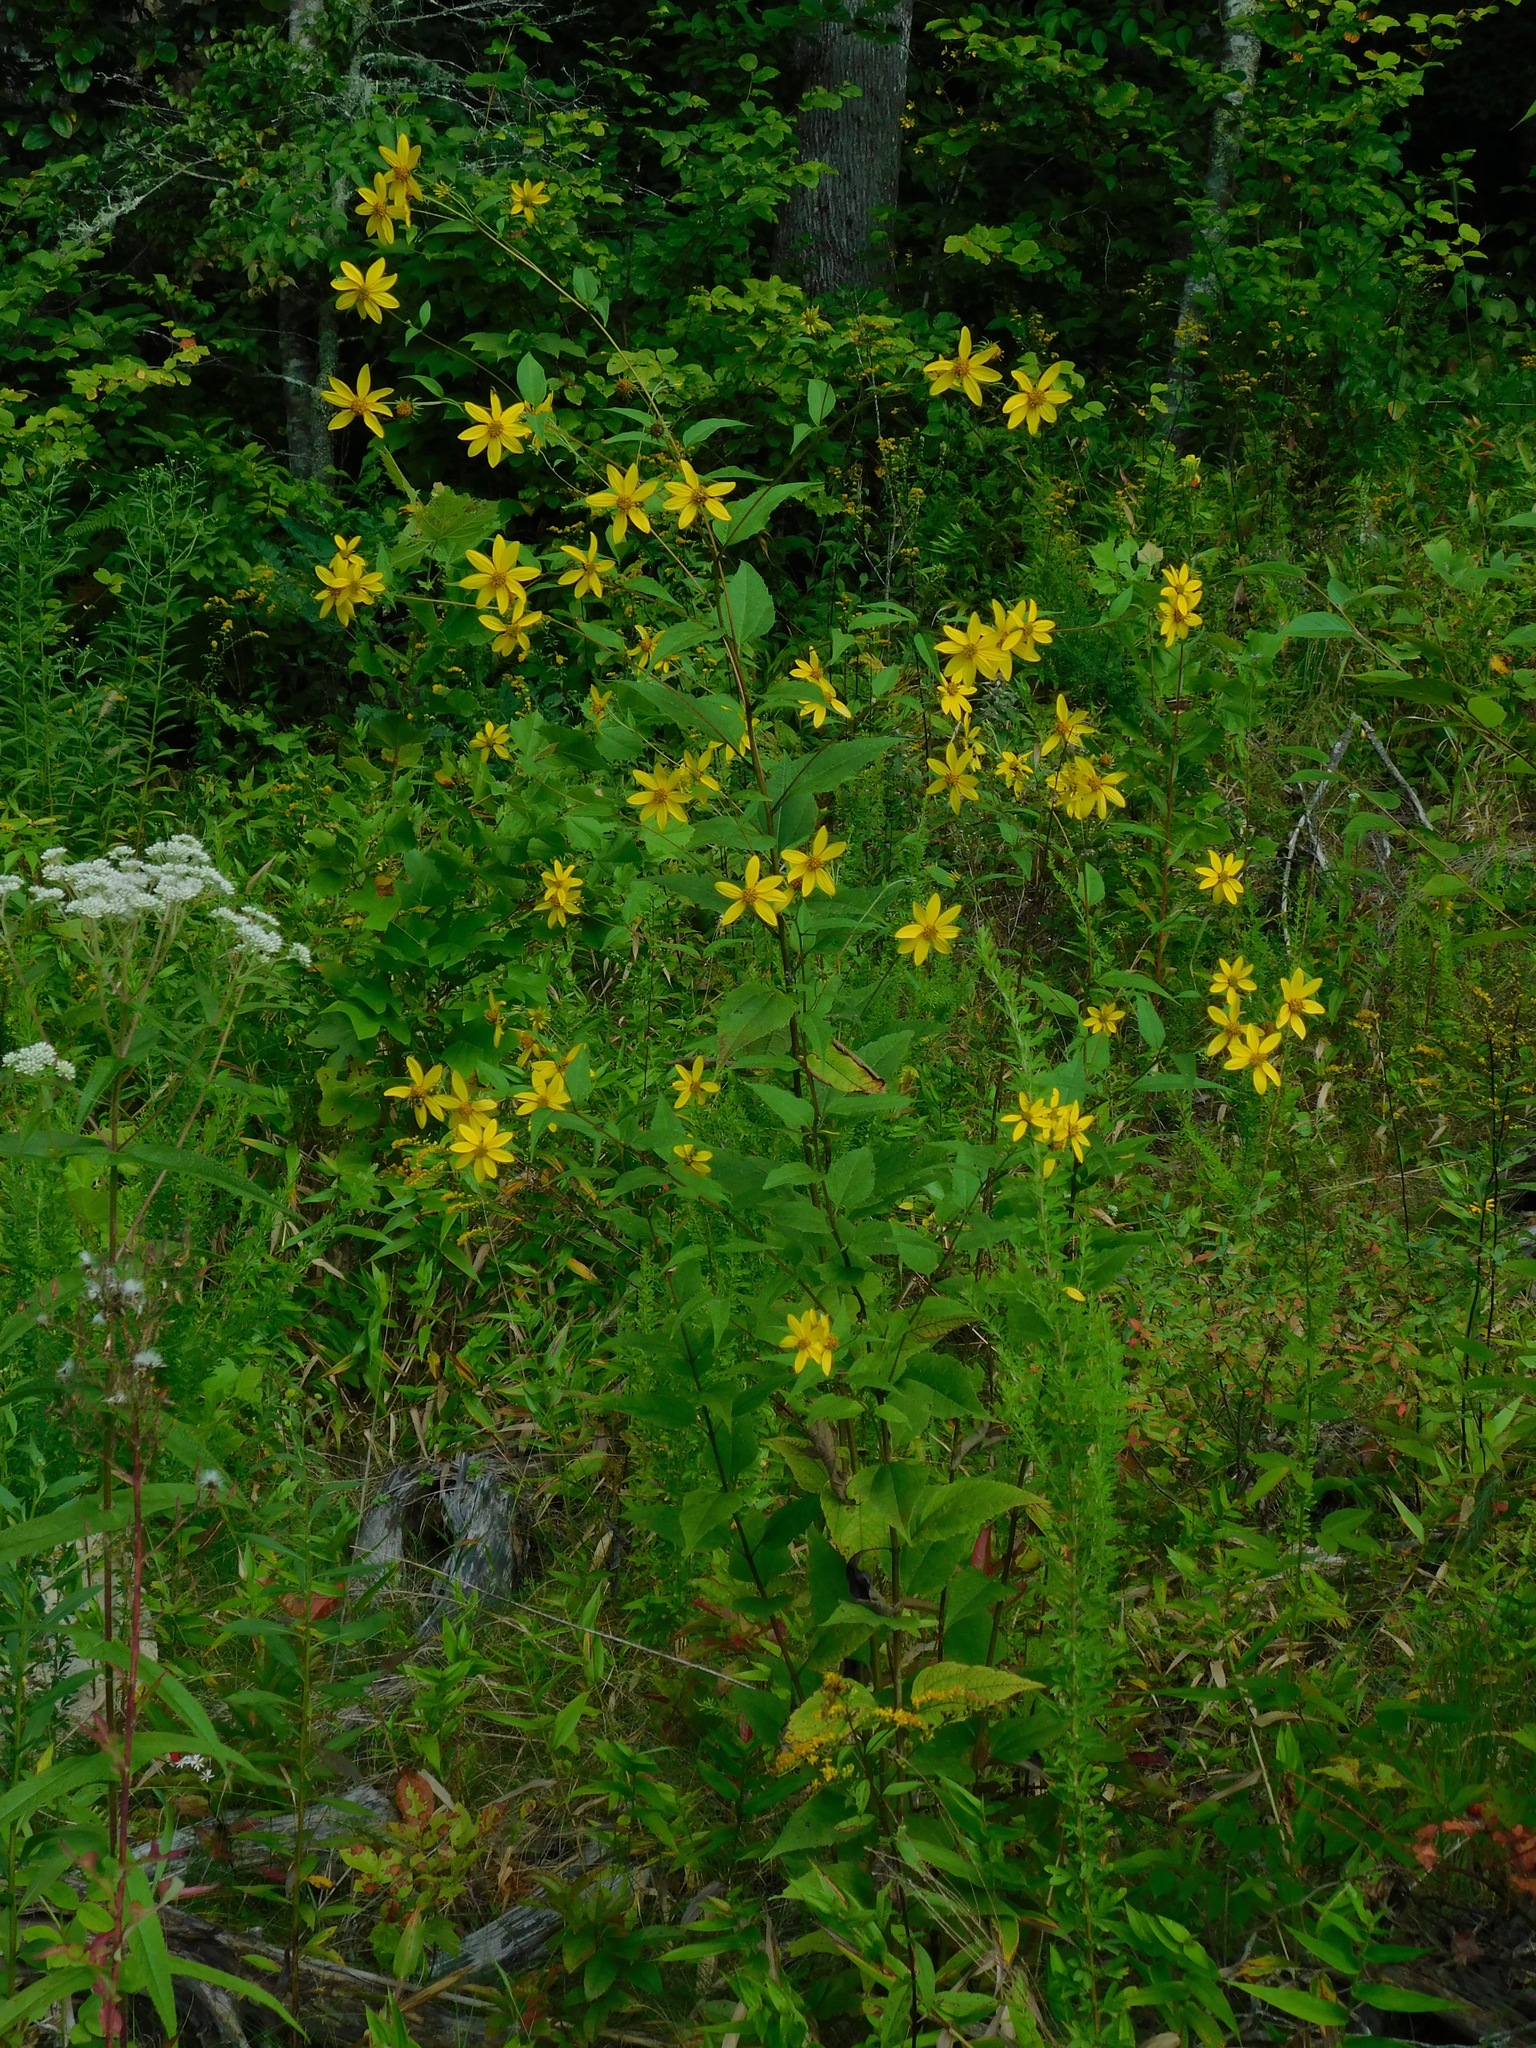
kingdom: Plantae
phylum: Tracheophyta
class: Magnoliopsida
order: Asterales
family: Asteraceae
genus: Helianthus
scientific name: Helianthus decapetalus
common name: Thin-leaved sunflower
